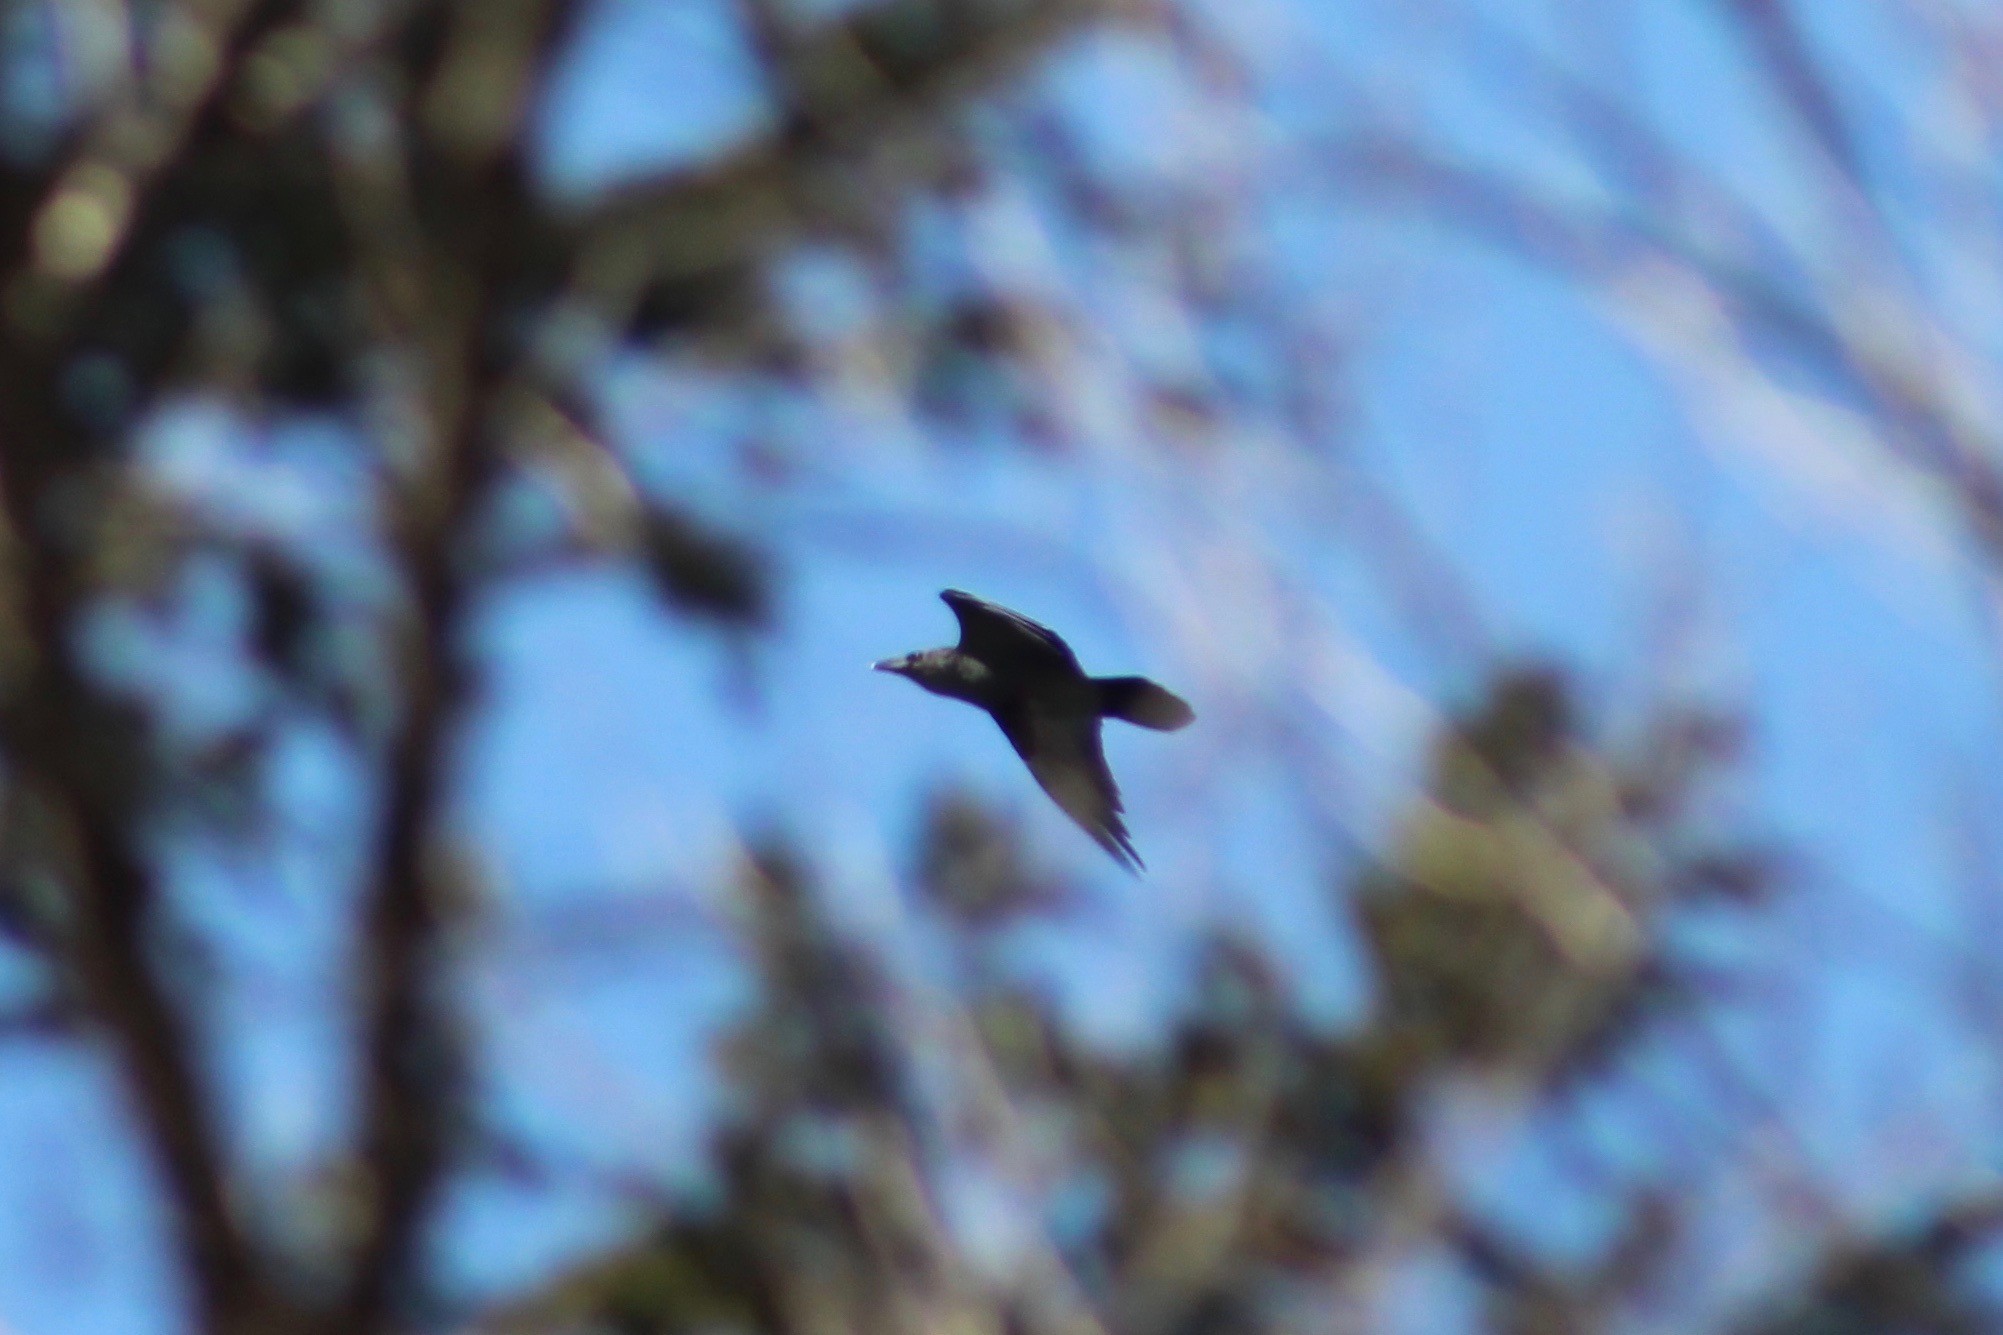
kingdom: Animalia
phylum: Chordata
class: Aves
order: Passeriformes
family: Corvidae
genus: Corvus
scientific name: Corvus corax
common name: Common raven
